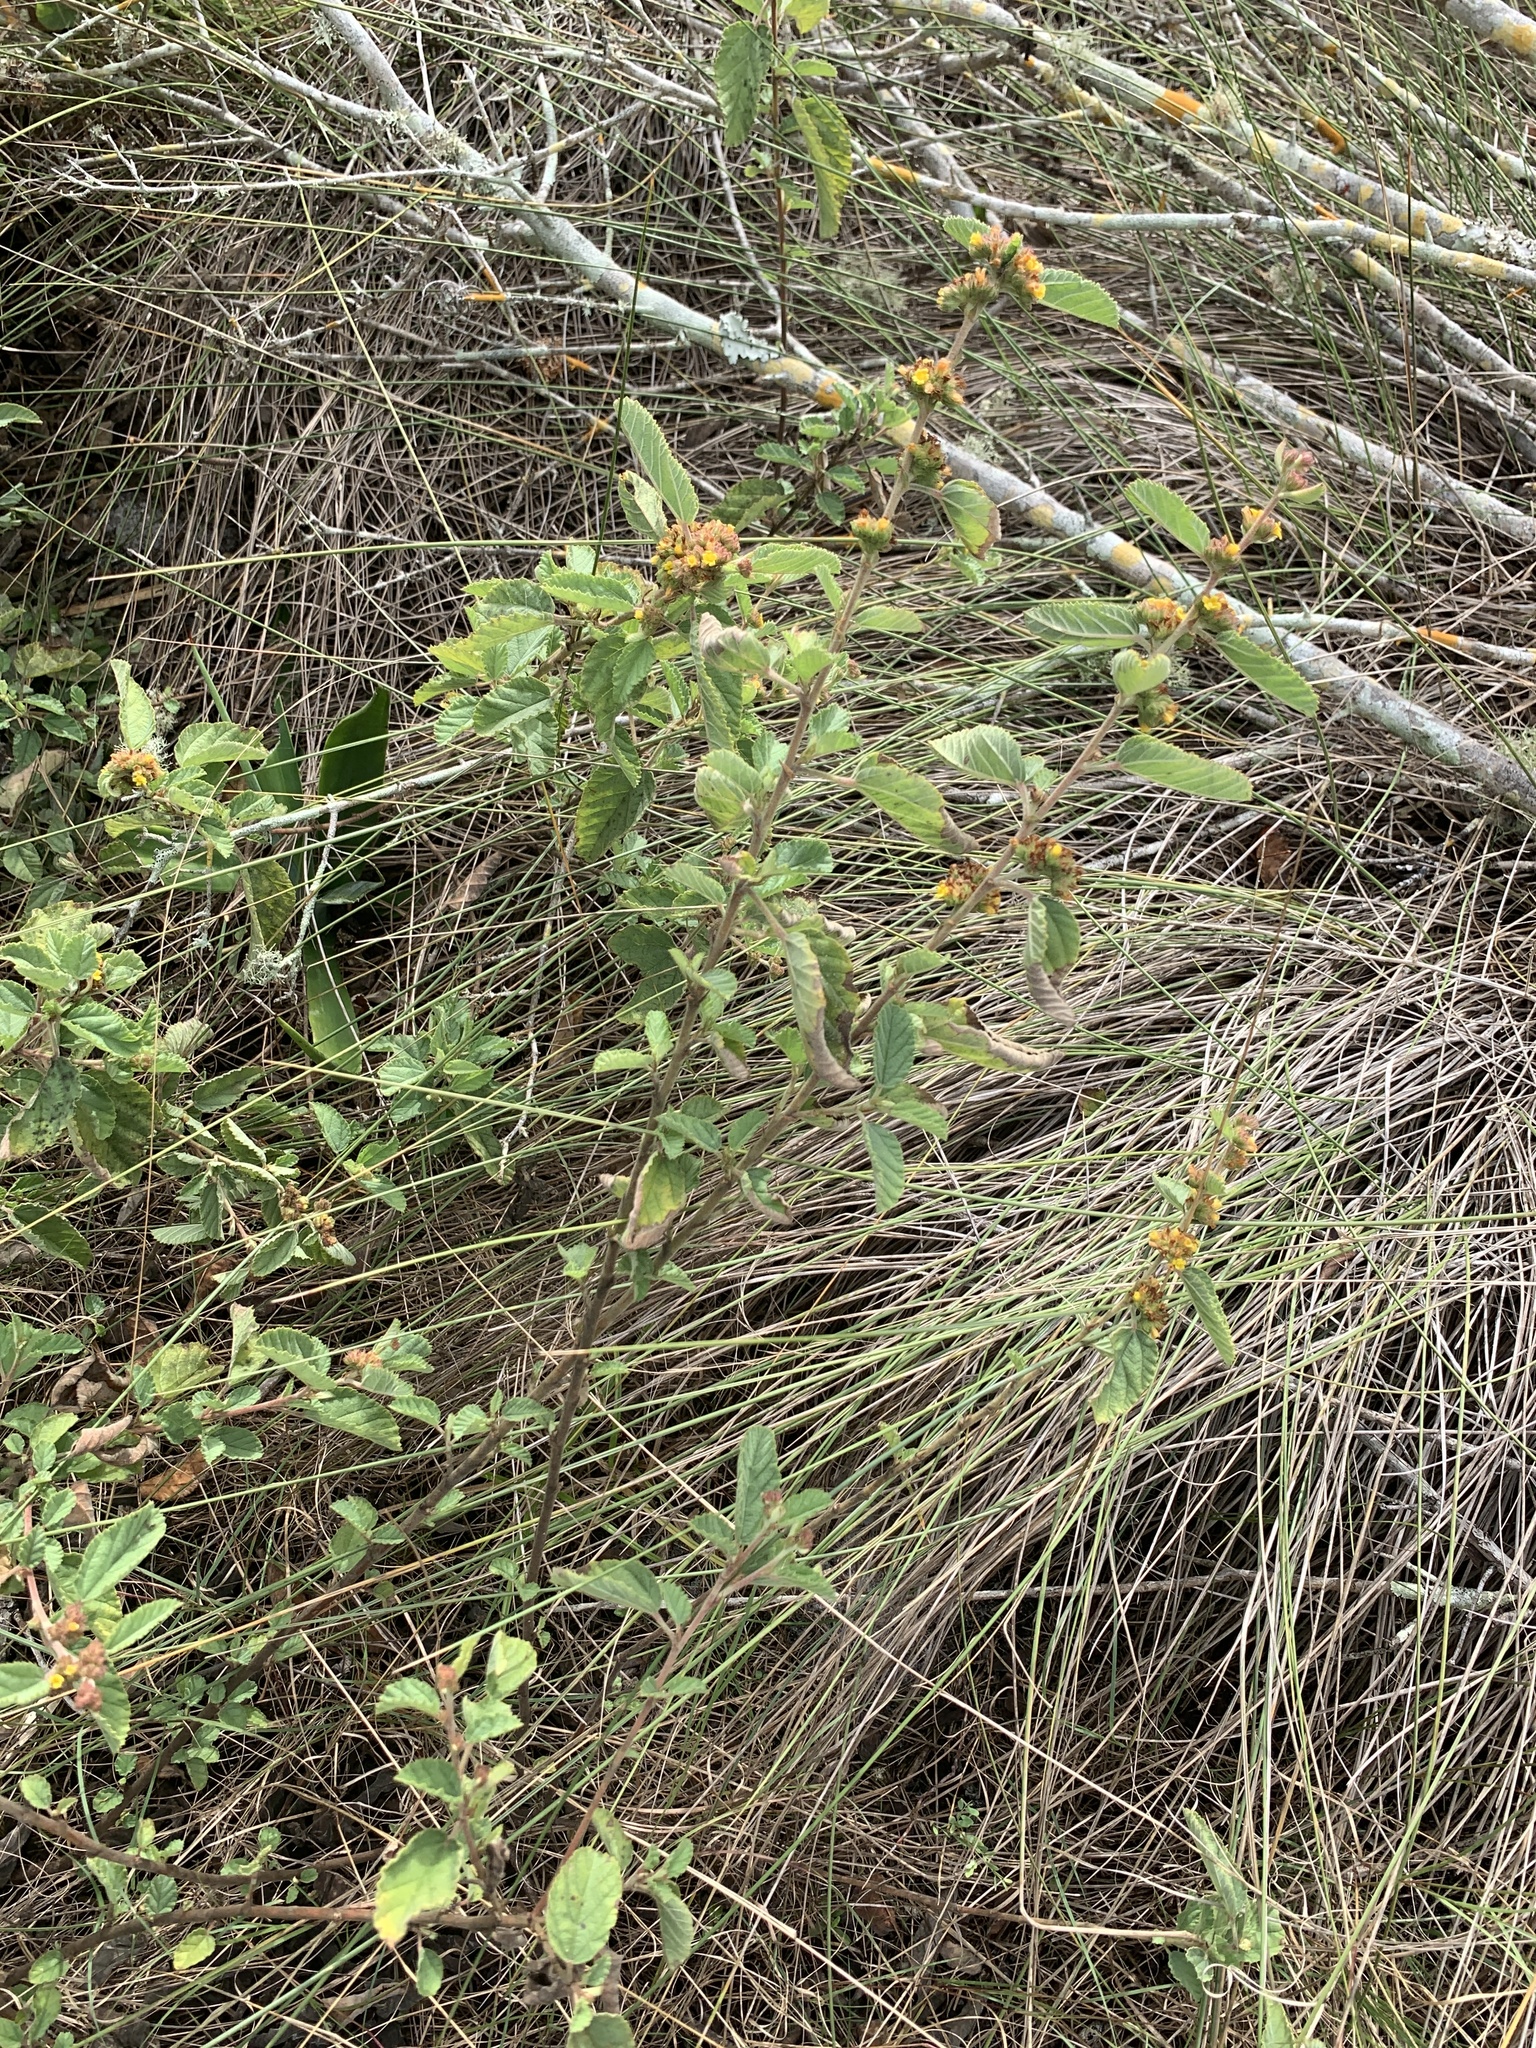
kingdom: Plantae
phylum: Tracheophyta
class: Magnoliopsida
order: Malvales
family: Malvaceae
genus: Waltheria
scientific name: Waltheria indica
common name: Leather-coat
